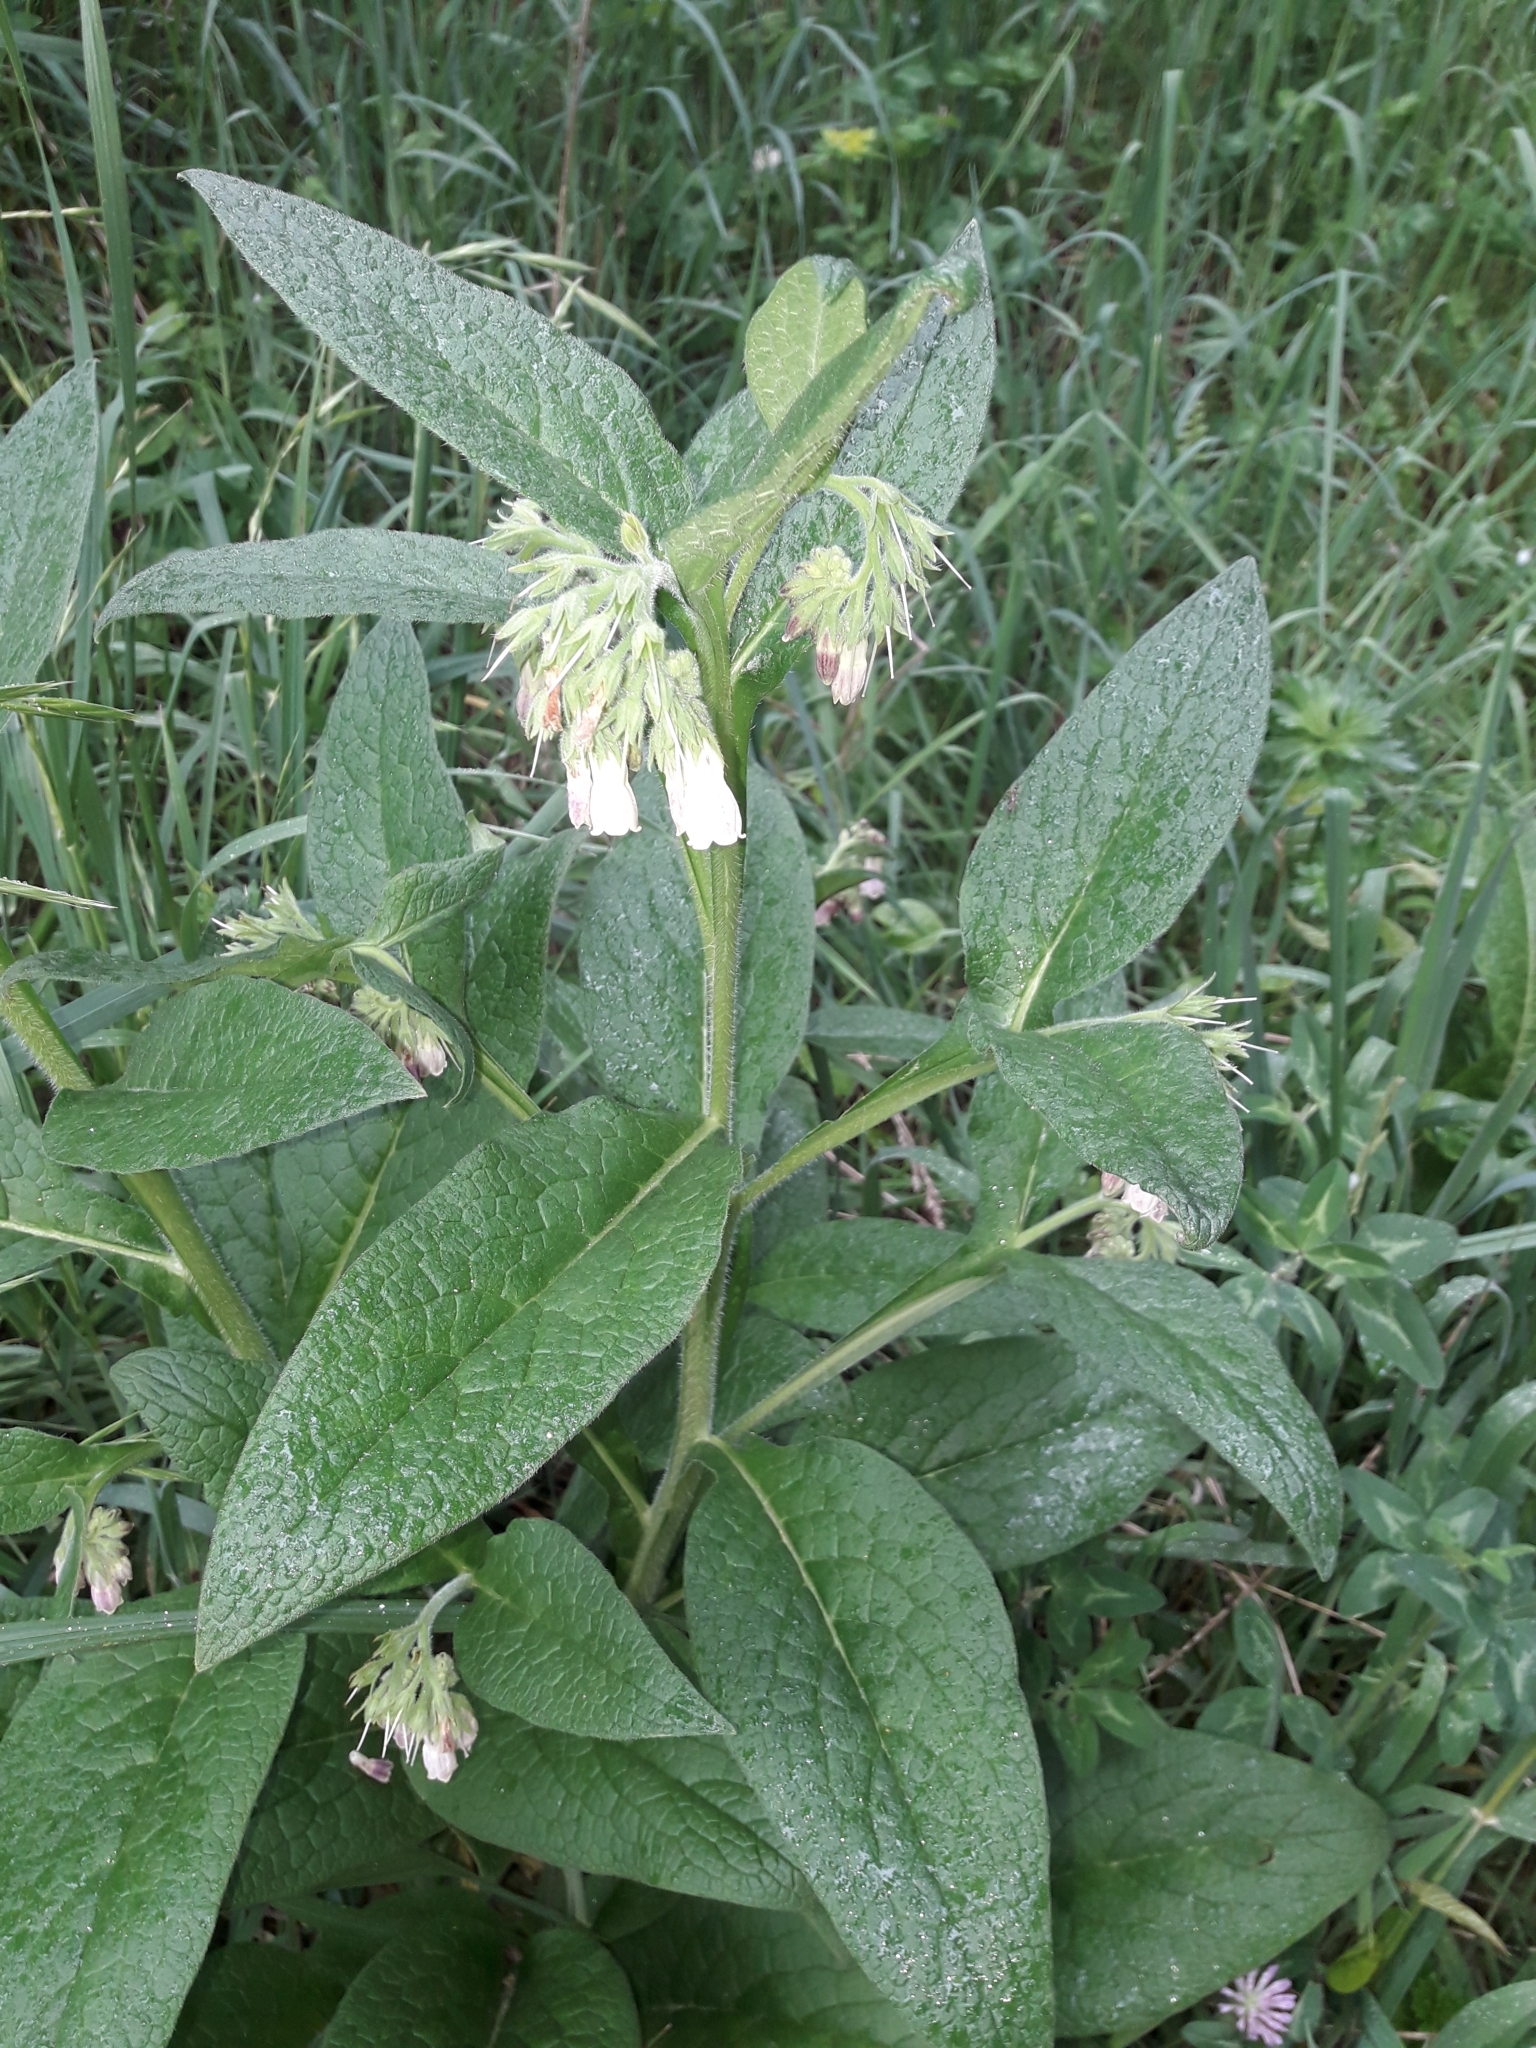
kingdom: Plantae
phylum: Tracheophyta
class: Magnoliopsida
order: Boraginales
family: Boraginaceae
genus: Symphytum
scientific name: Symphytum officinale
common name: Common comfrey
